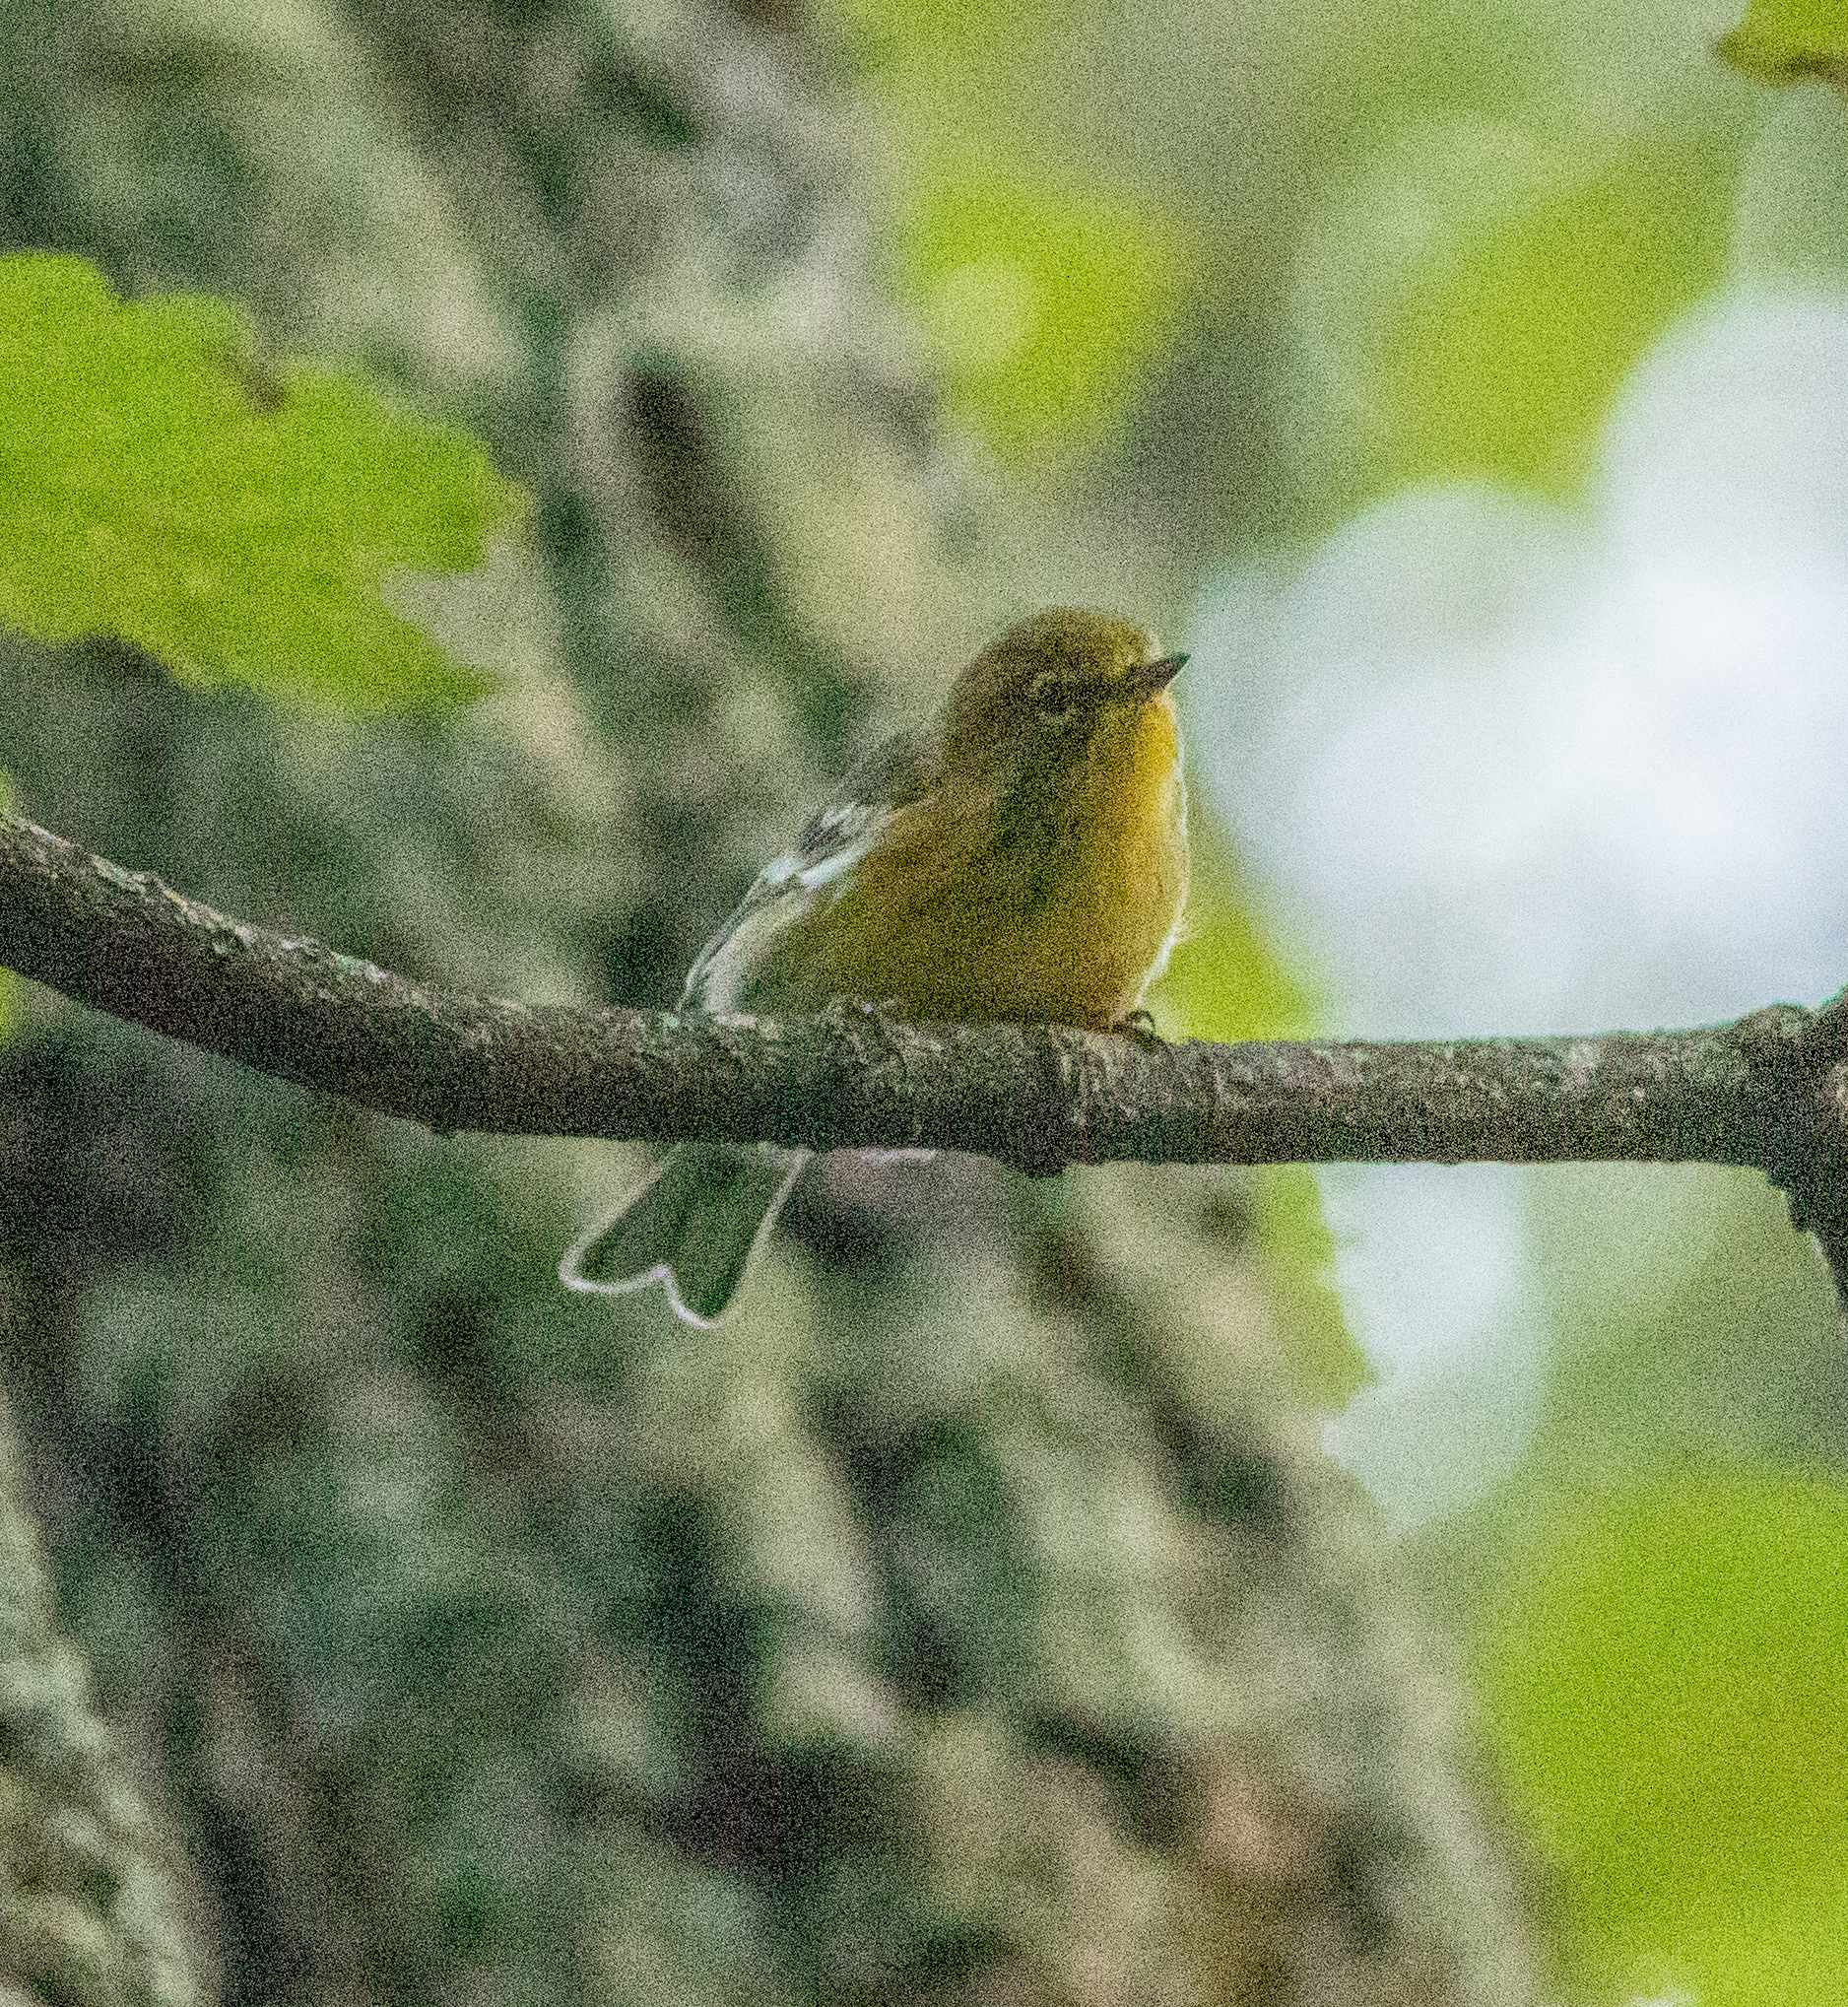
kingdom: Animalia
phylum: Chordata
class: Aves
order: Passeriformes
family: Parulidae
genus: Setophaga
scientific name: Setophaga pinus
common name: Pine warbler
